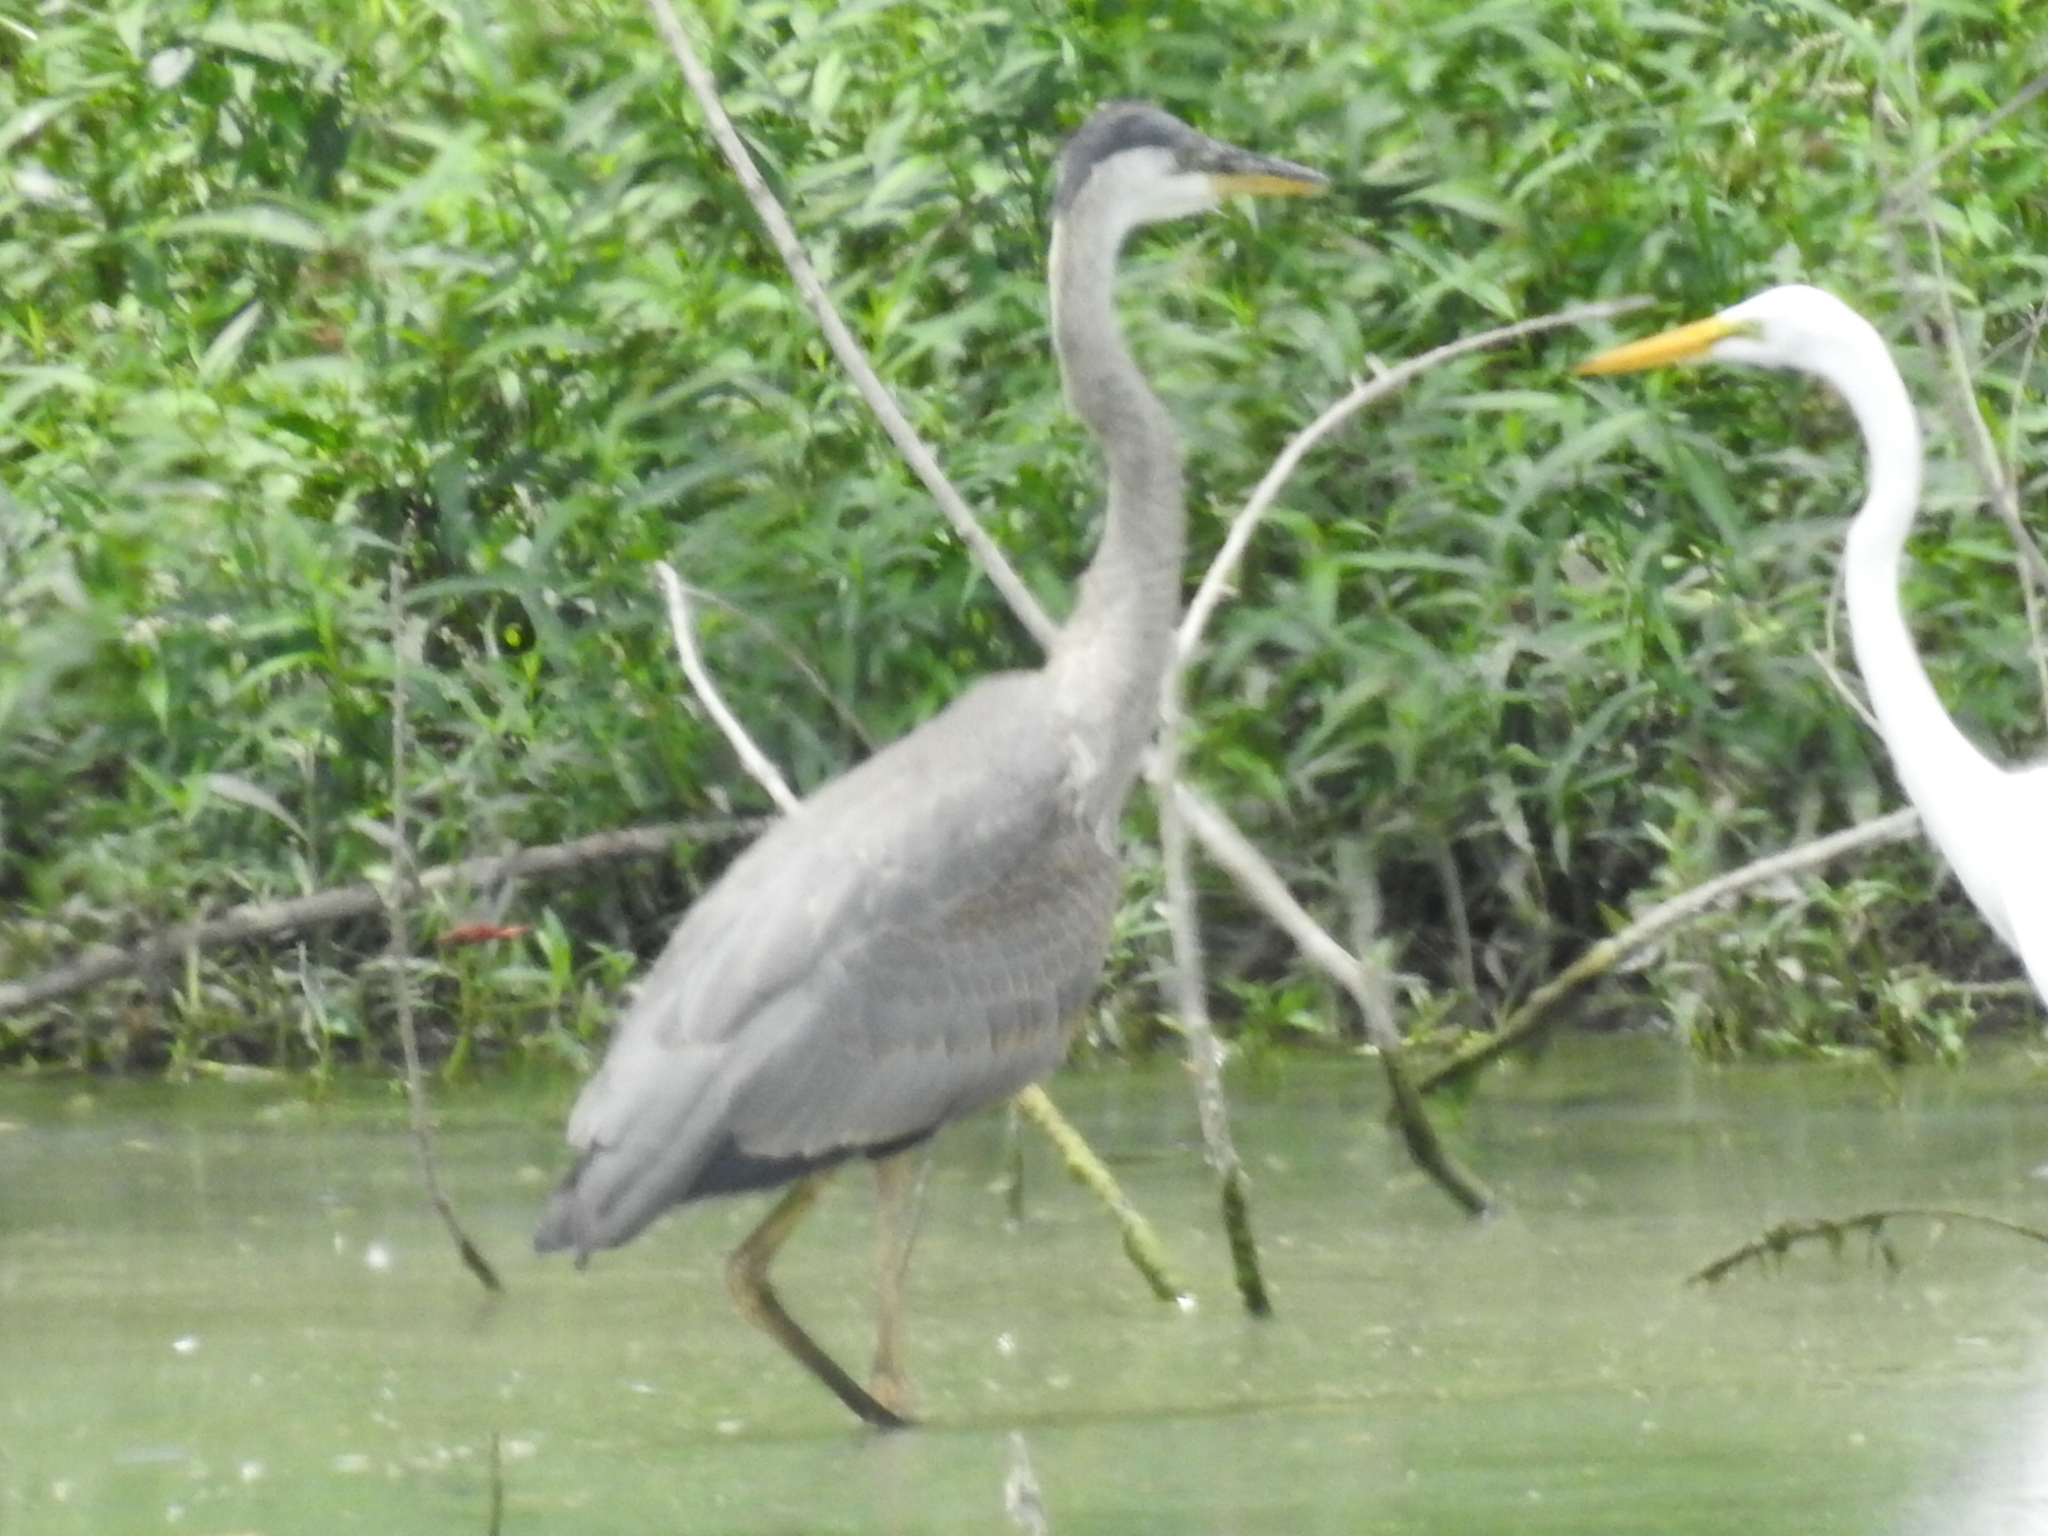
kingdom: Animalia
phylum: Chordata
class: Aves
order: Pelecaniformes
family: Ardeidae
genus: Ardea
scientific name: Ardea herodias
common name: Great blue heron
